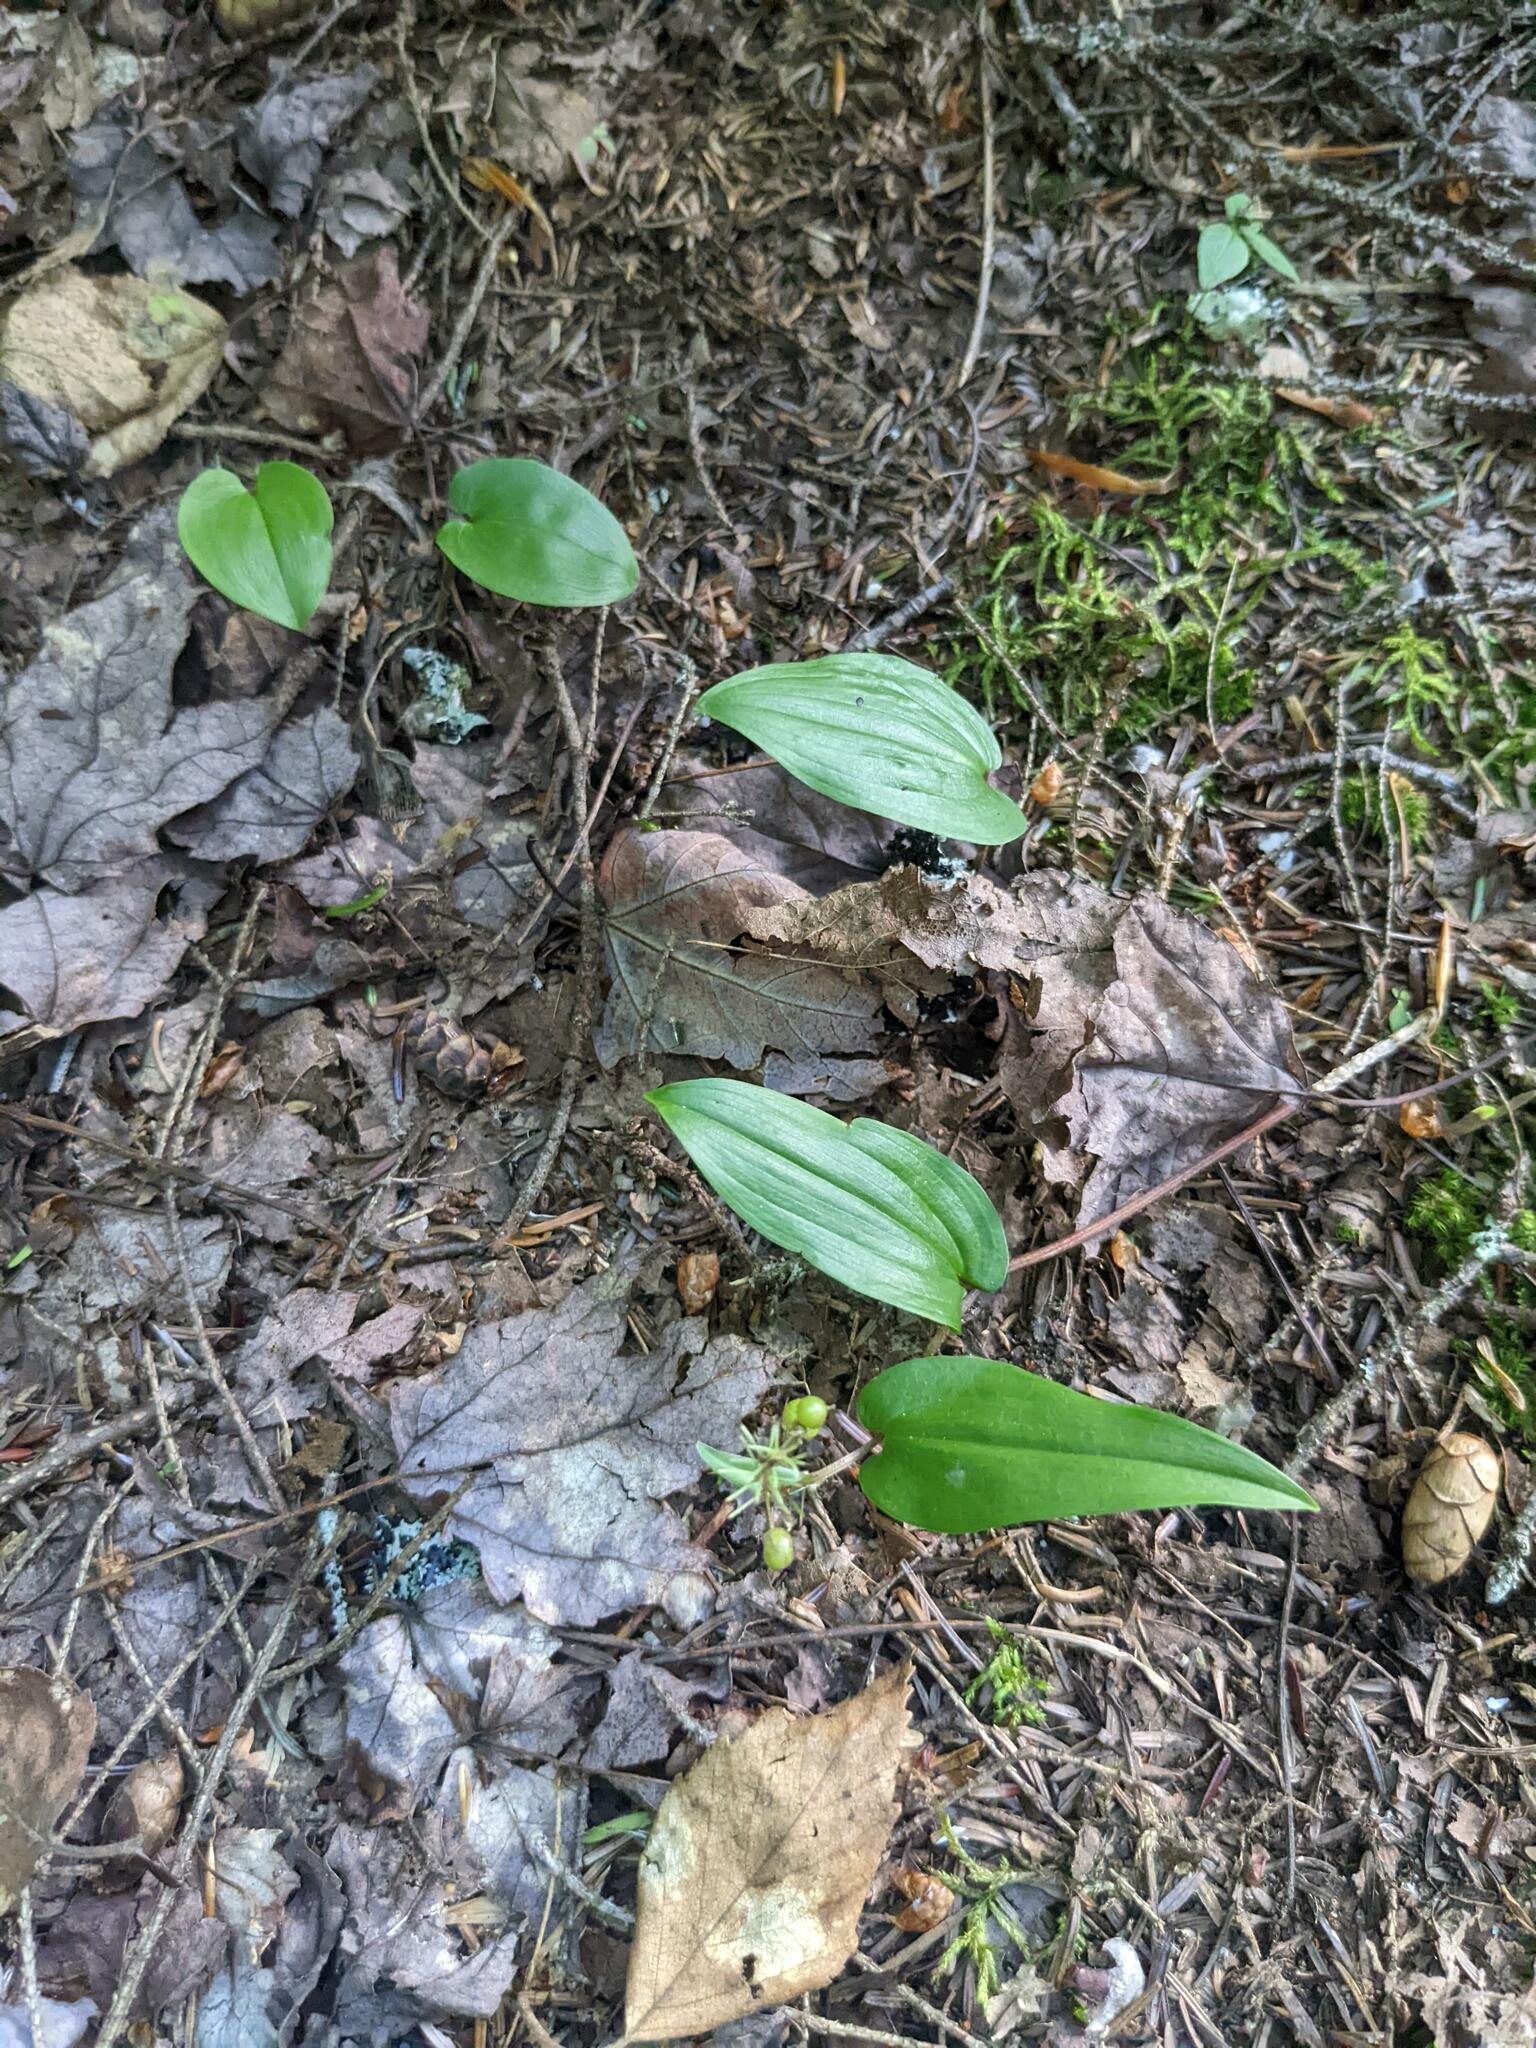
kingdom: Plantae
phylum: Tracheophyta
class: Liliopsida
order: Asparagales
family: Orchidaceae
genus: Cypripedium
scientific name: Cypripedium acaule
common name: Pink lady's-slipper
